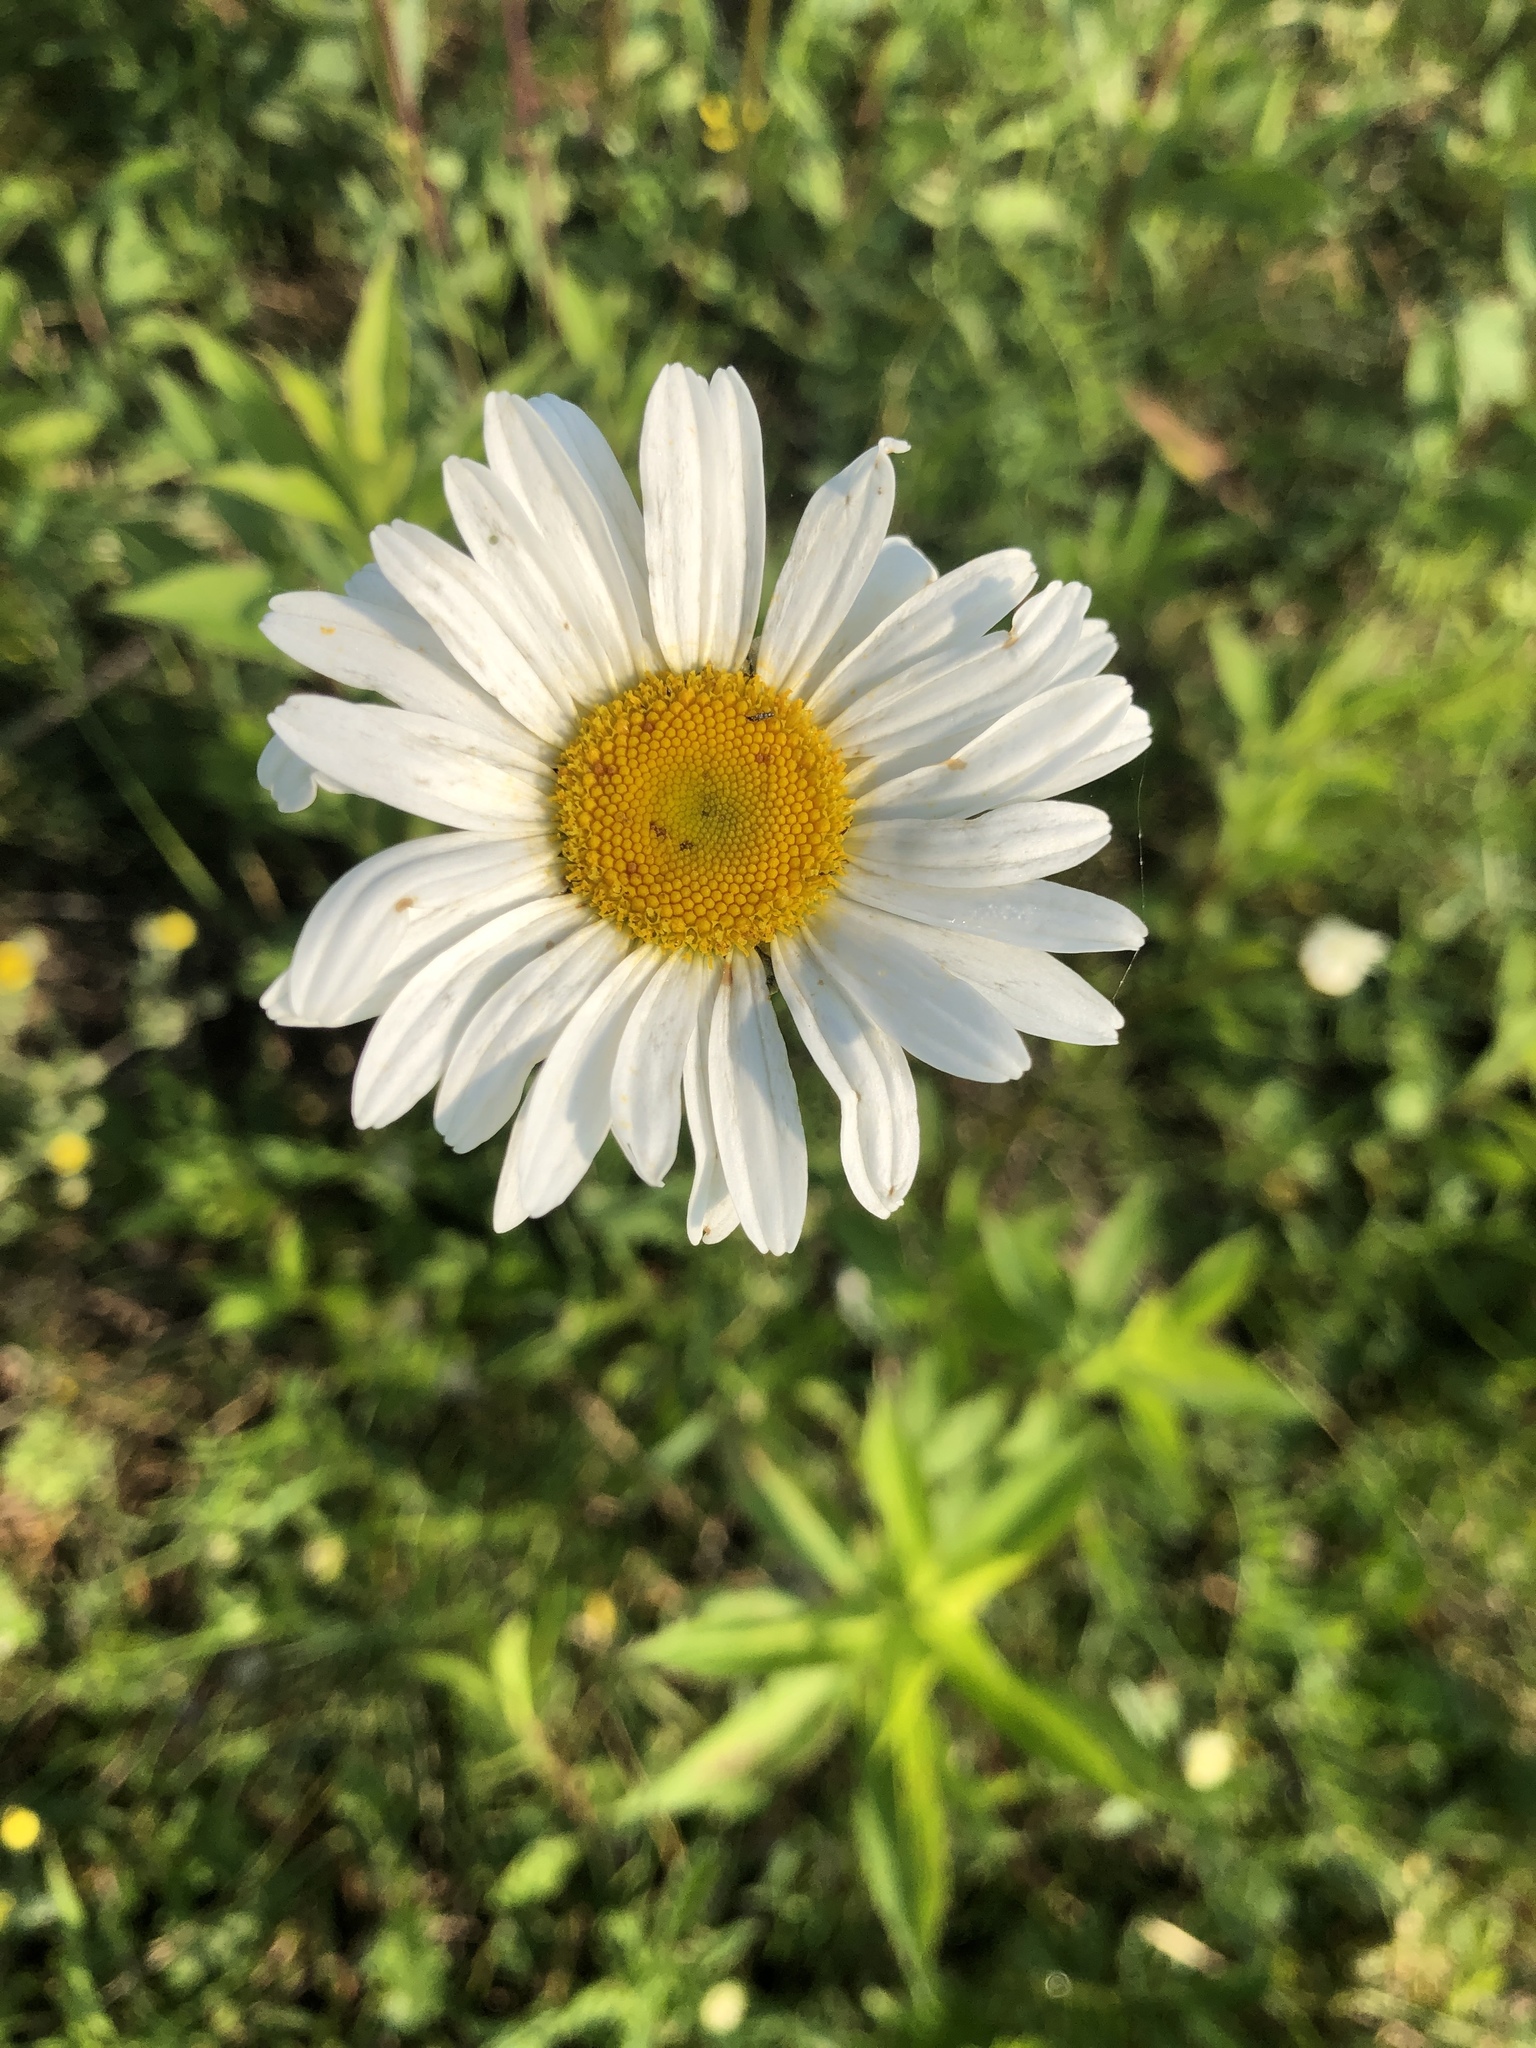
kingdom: Plantae
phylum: Tracheophyta
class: Magnoliopsida
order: Asterales
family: Asteraceae
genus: Leucanthemum
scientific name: Leucanthemum vulgare
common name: Oxeye daisy
